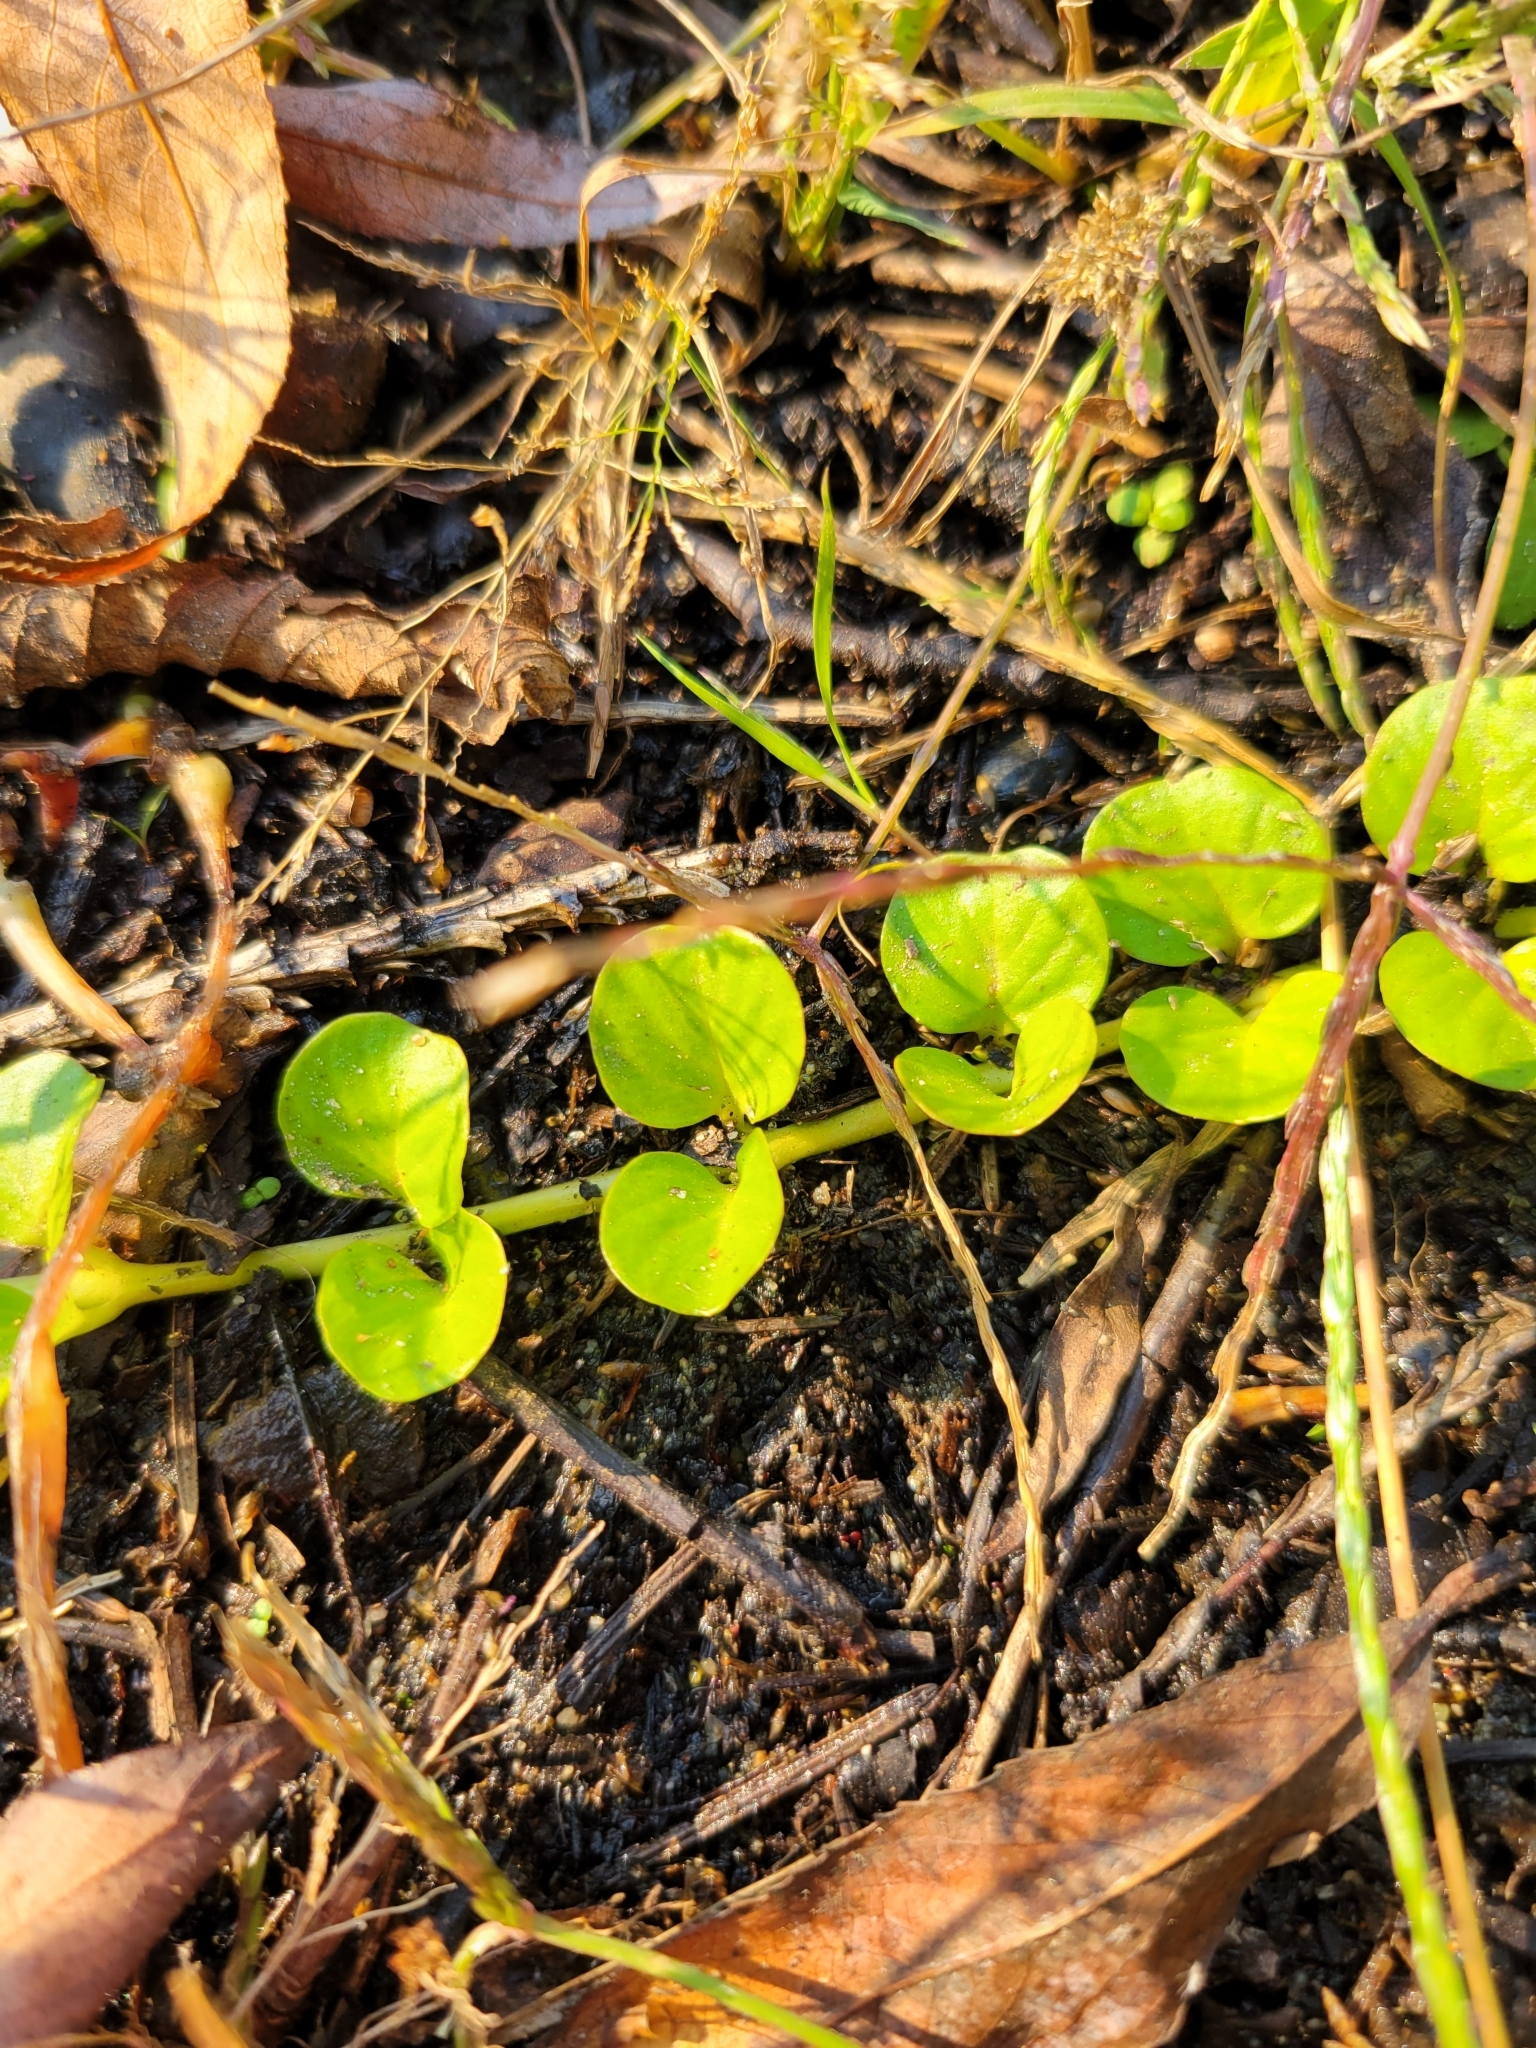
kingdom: Plantae
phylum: Tracheophyta
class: Magnoliopsida
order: Ericales
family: Primulaceae
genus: Lysimachia
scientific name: Lysimachia nummularia
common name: Moneywort
